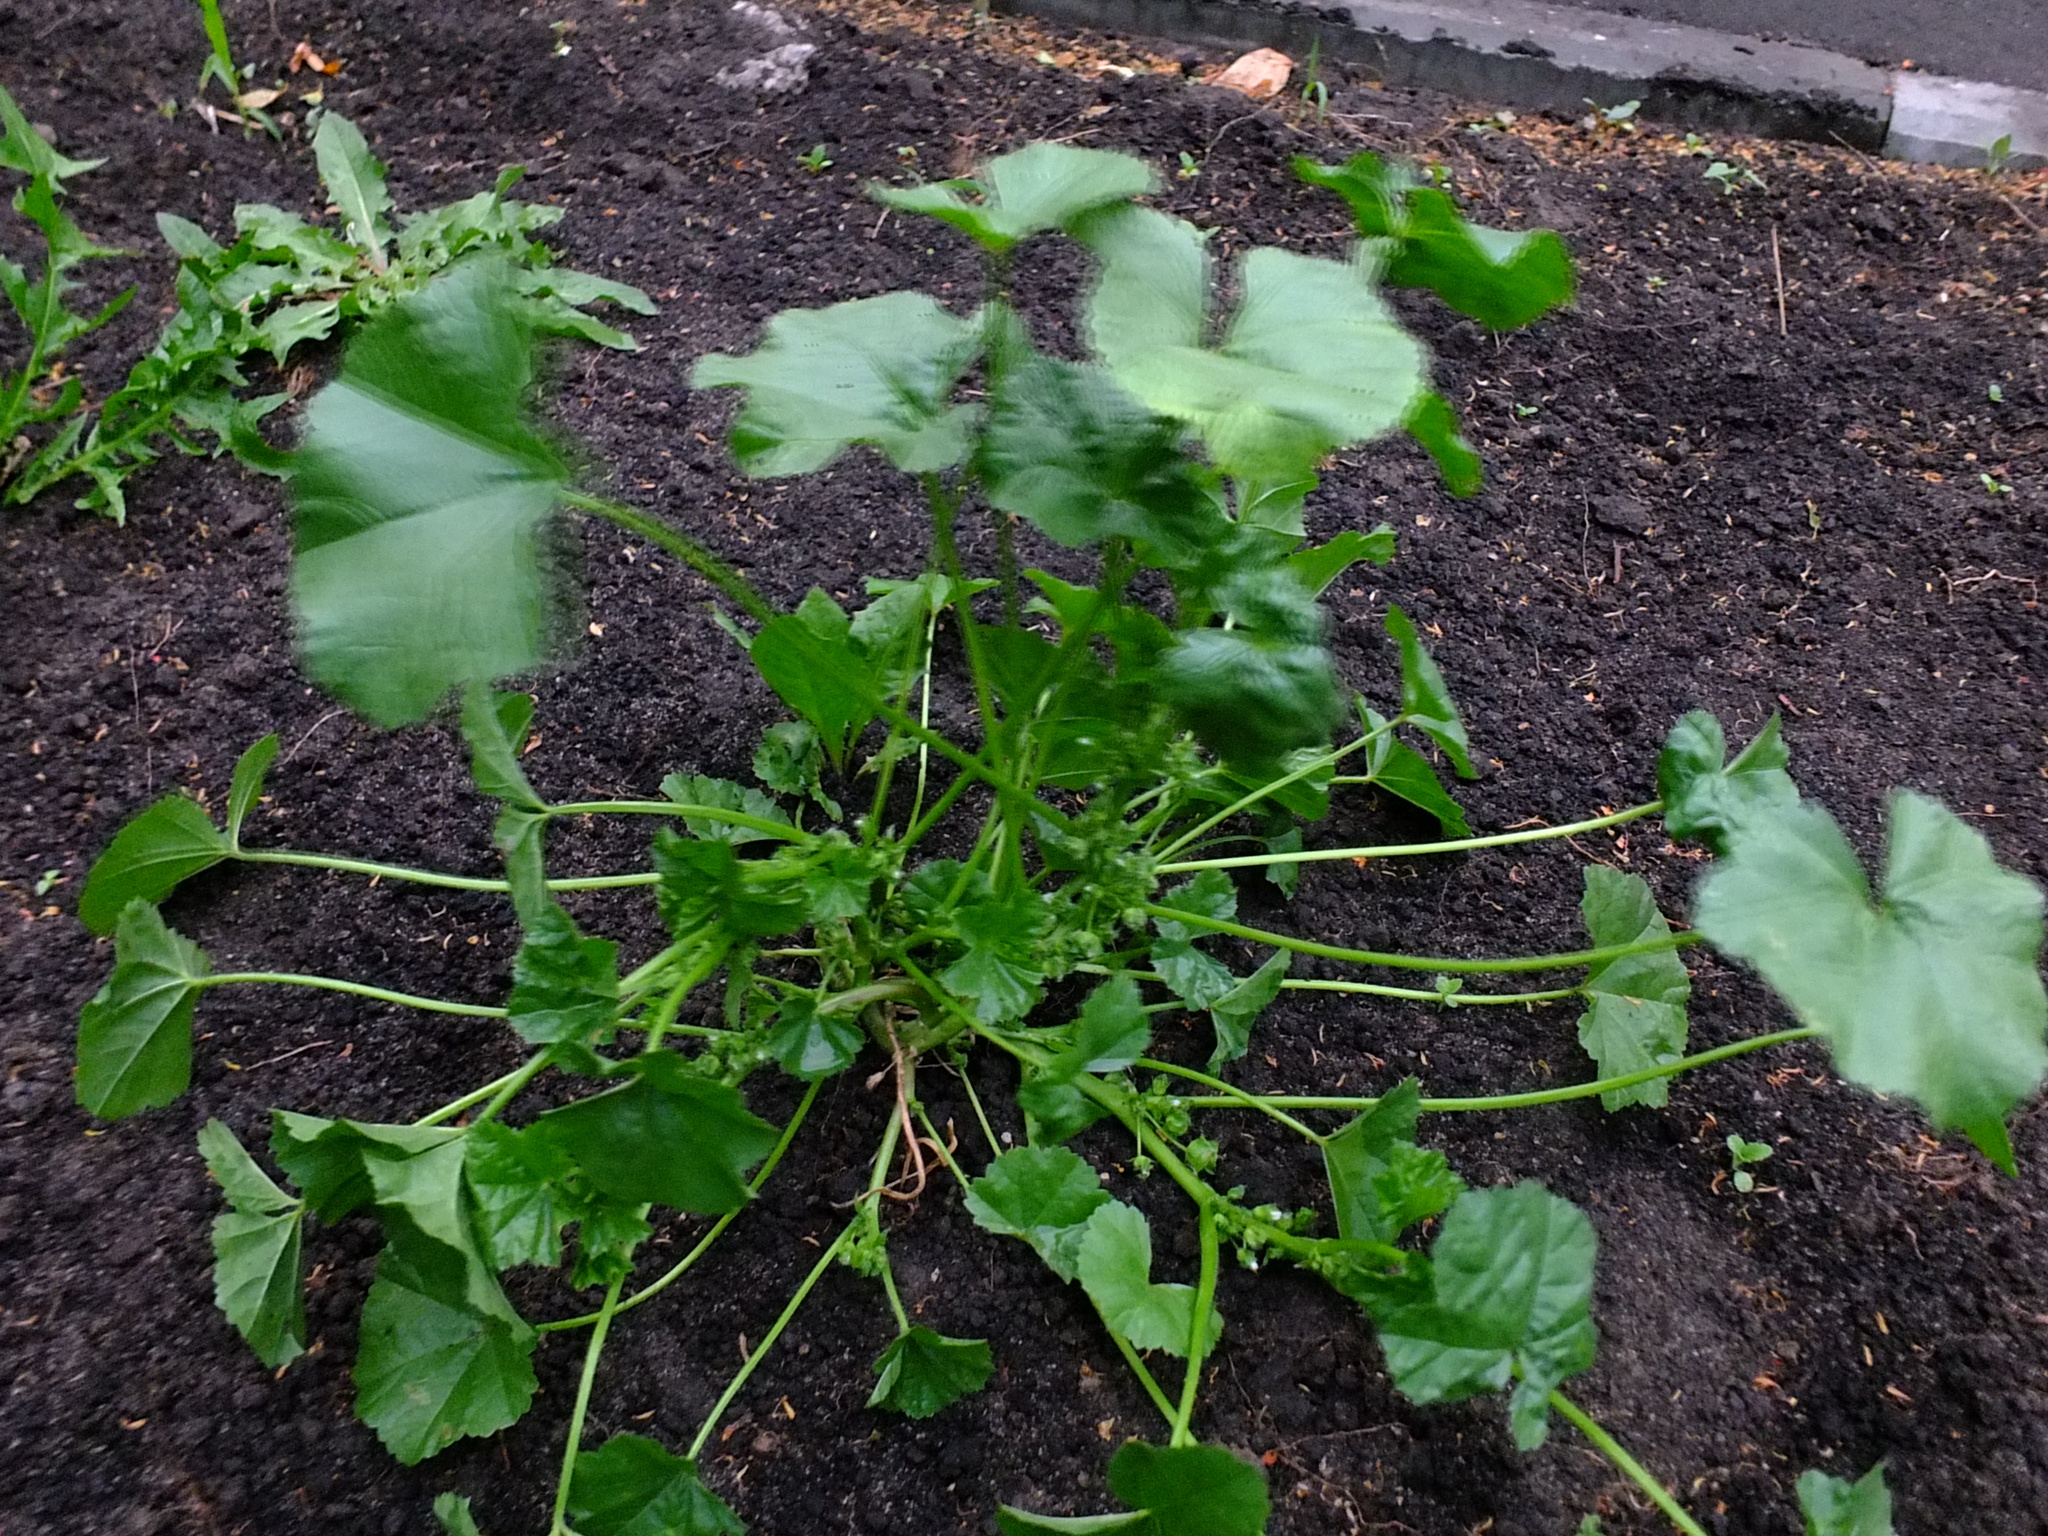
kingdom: Plantae
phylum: Tracheophyta
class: Magnoliopsida
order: Malvales
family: Malvaceae
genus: Malva
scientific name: Malva pusilla
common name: Small mallow
